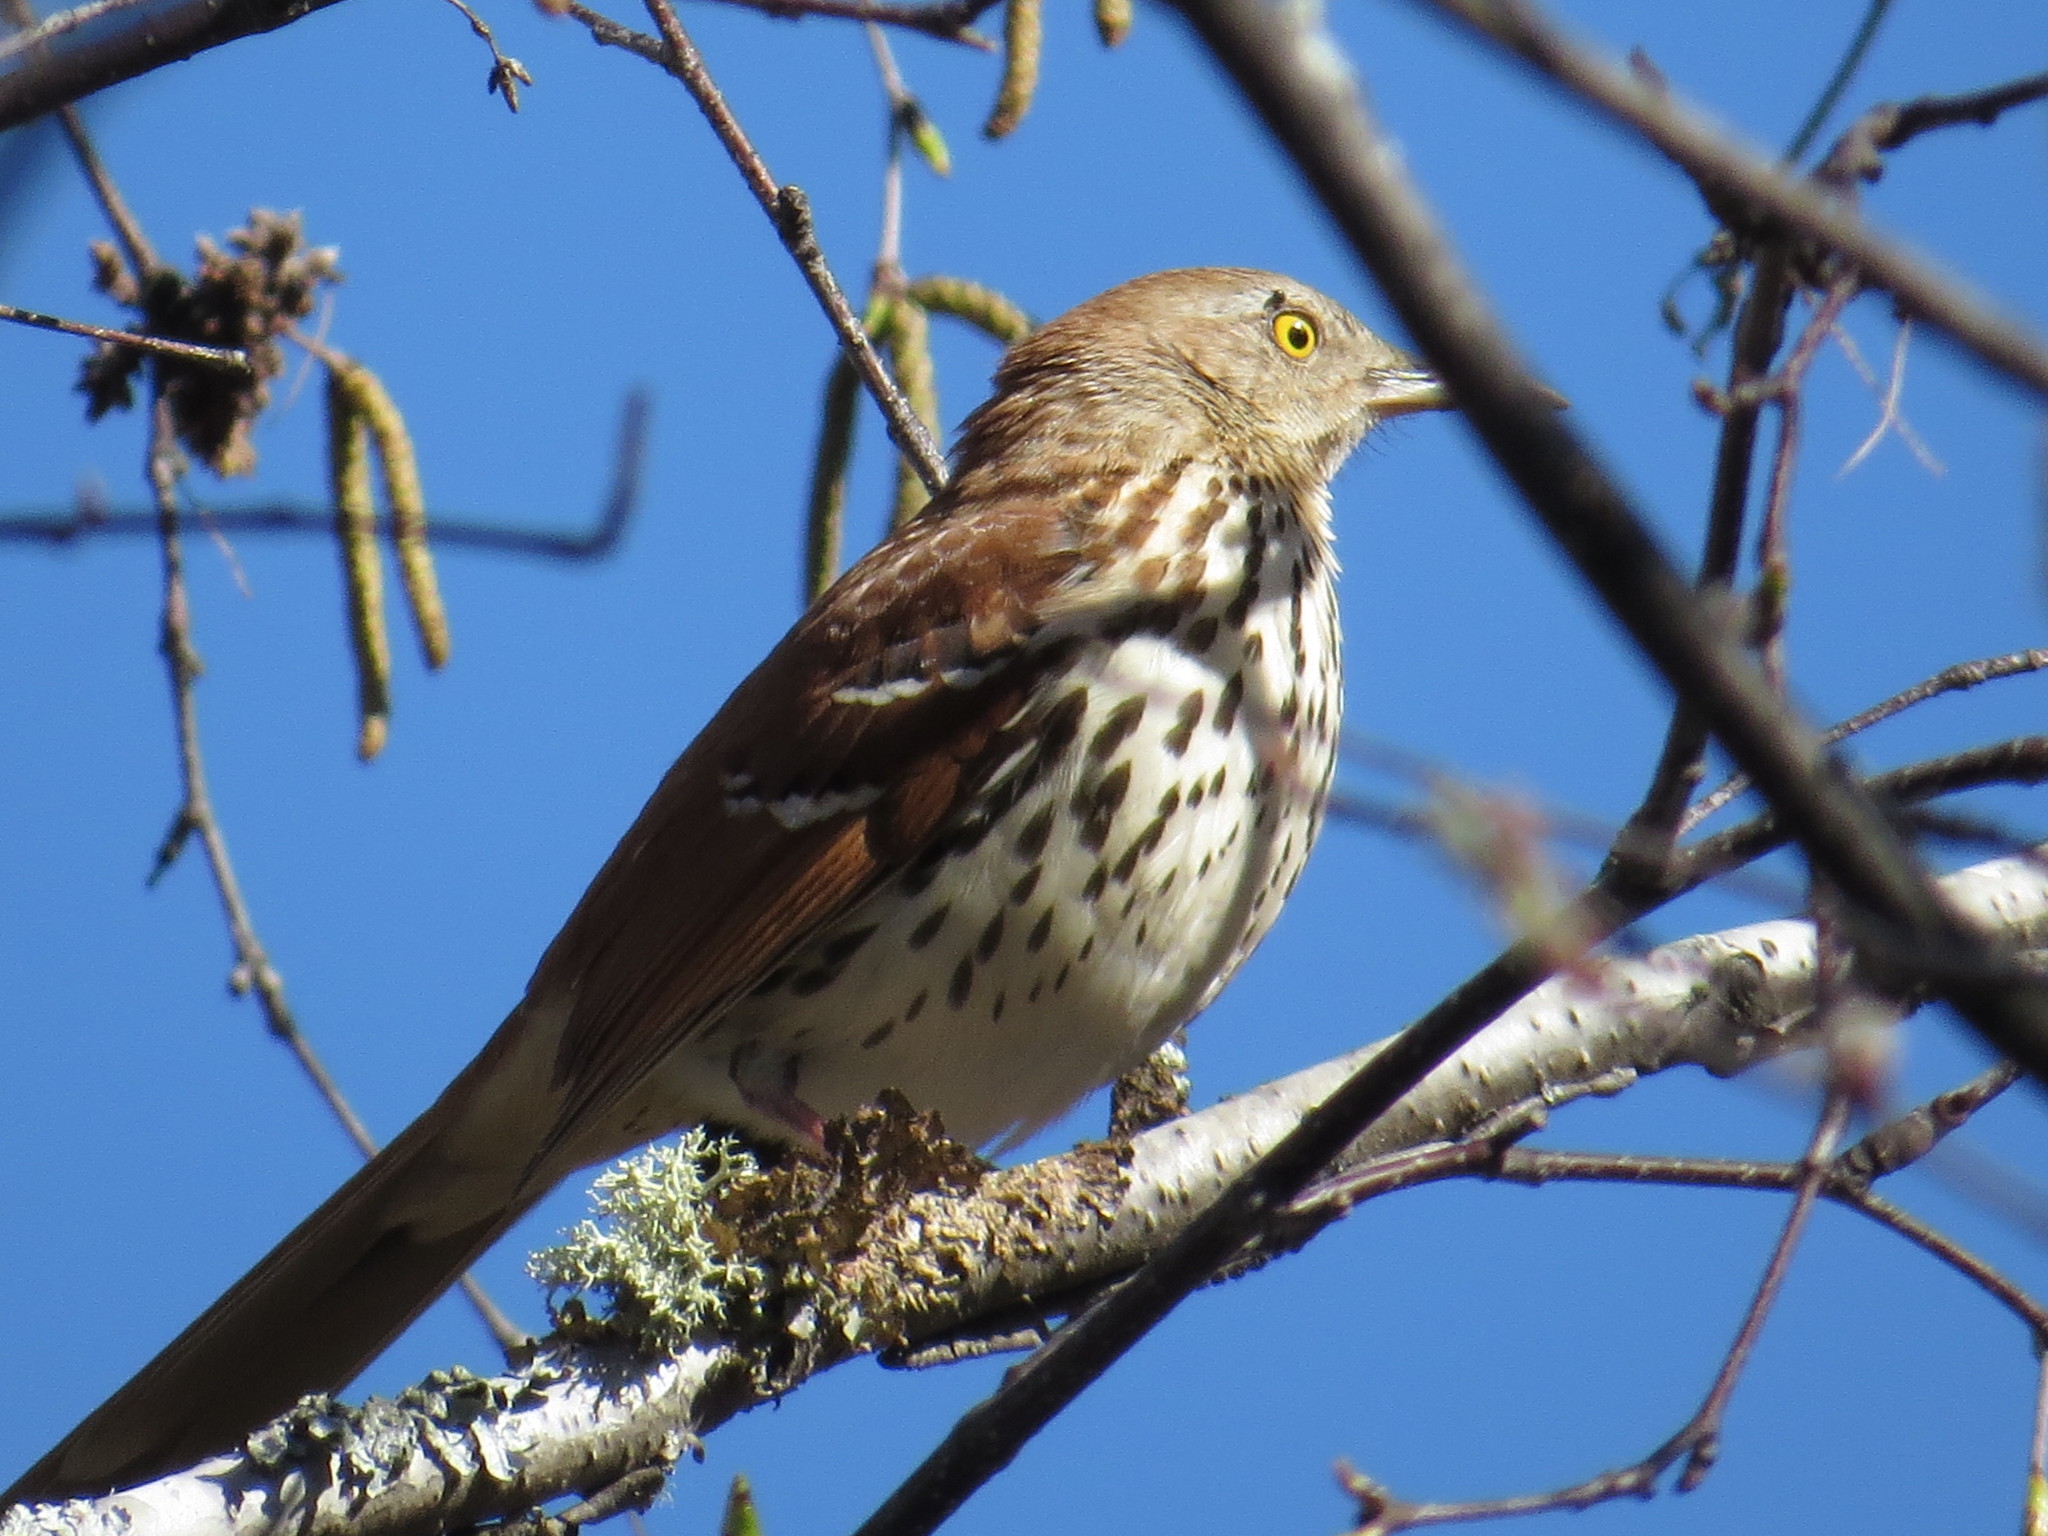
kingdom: Animalia
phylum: Chordata
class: Aves
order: Passeriformes
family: Mimidae
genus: Toxostoma
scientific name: Toxostoma rufum
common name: Brown thrasher
